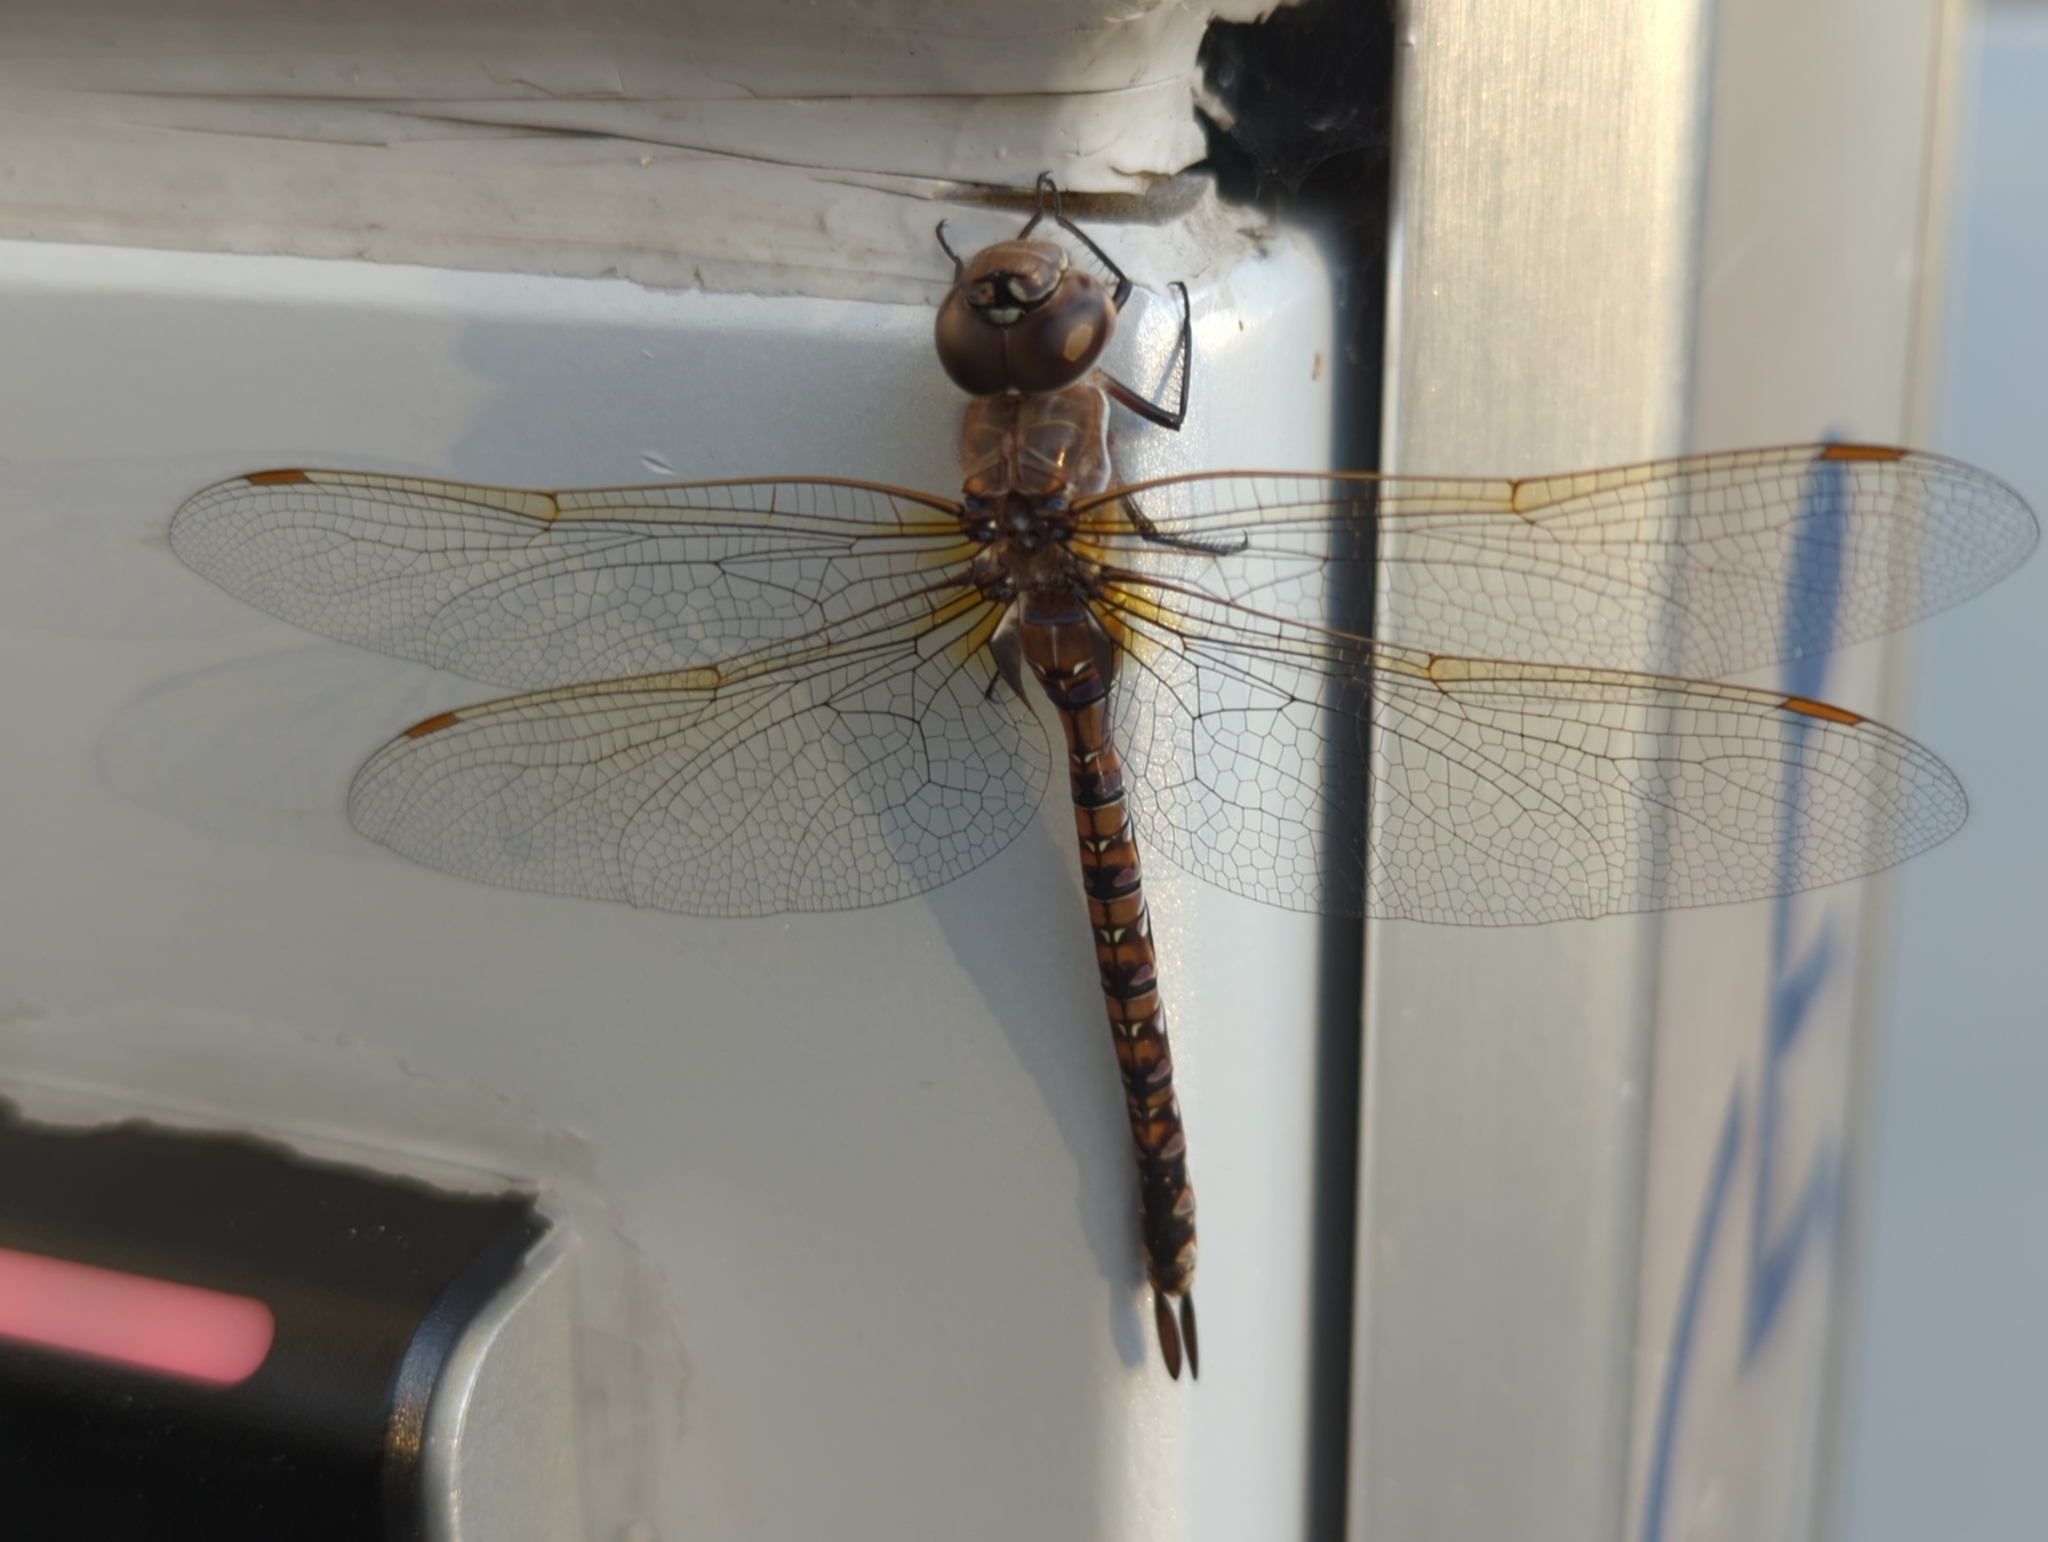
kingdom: Animalia
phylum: Arthropoda
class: Insecta
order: Odonata
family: Aeshnidae
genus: Rhionaeschna
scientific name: Rhionaeschna multicolor
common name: Blue-eyed darner
